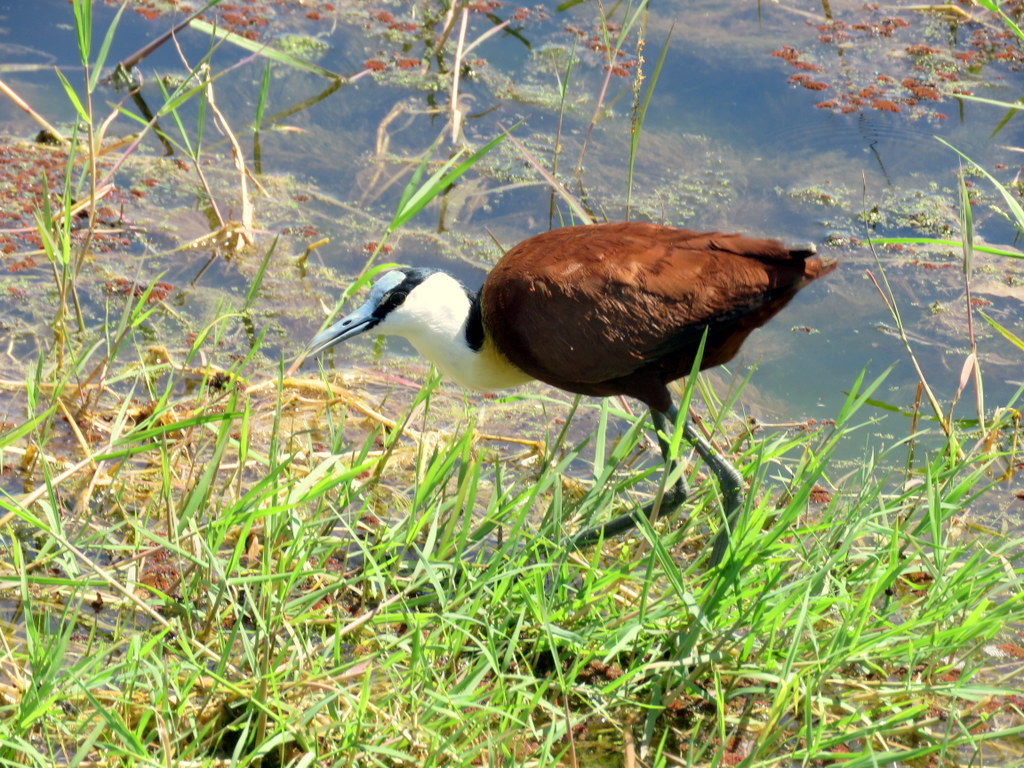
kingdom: Animalia
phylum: Chordata
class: Aves
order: Charadriiformes
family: Jacanidae
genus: Actophilornis
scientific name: Actophilornis africanus
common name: African jacana
